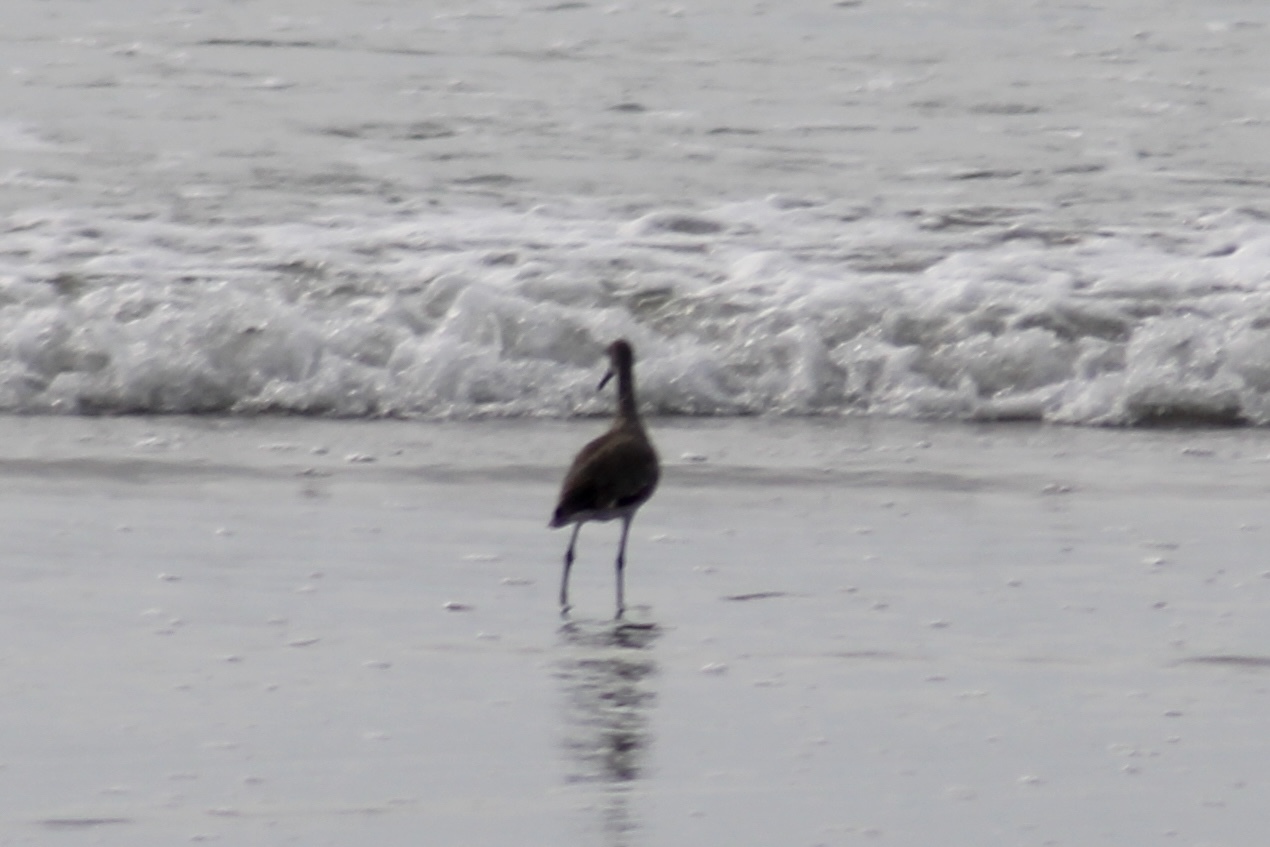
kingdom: Animalia
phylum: Chordata
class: Aves
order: Charadriiformes
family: Scolopacidae
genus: Tringa
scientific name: Tringa semipalmata
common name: Willet
